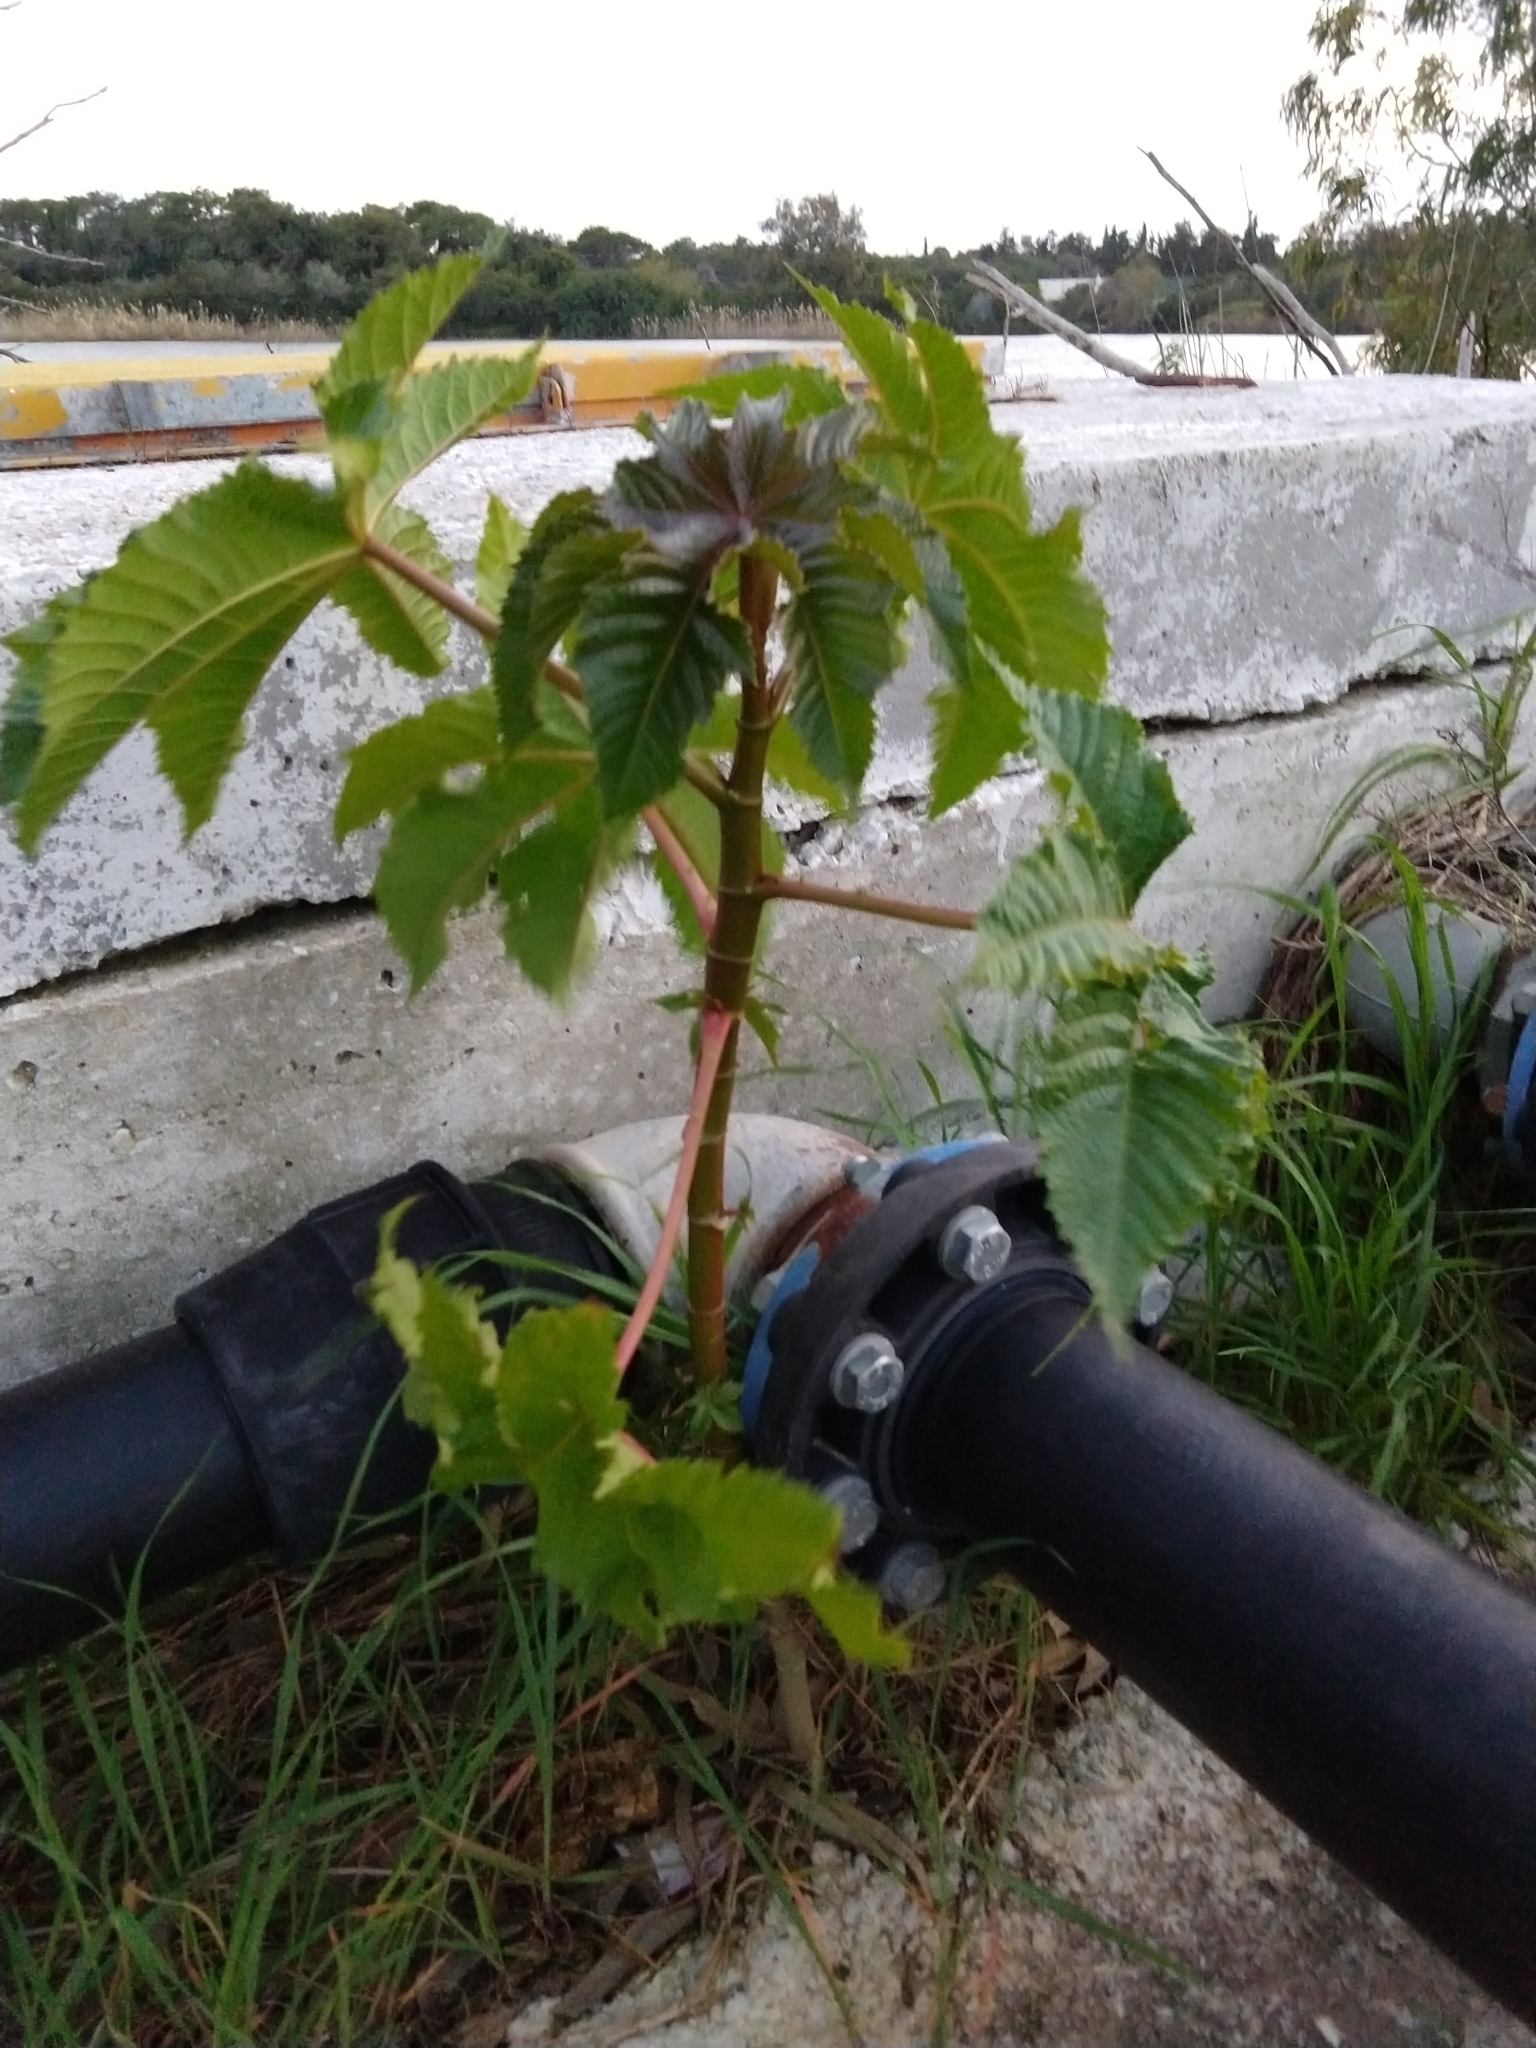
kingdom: Plantae
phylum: Tracheophyta
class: Magnoliopsida
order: Malpighiales
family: Euphorbiaceae
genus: Ricinus
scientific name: Ricinus communis
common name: Castor-oil-plant
